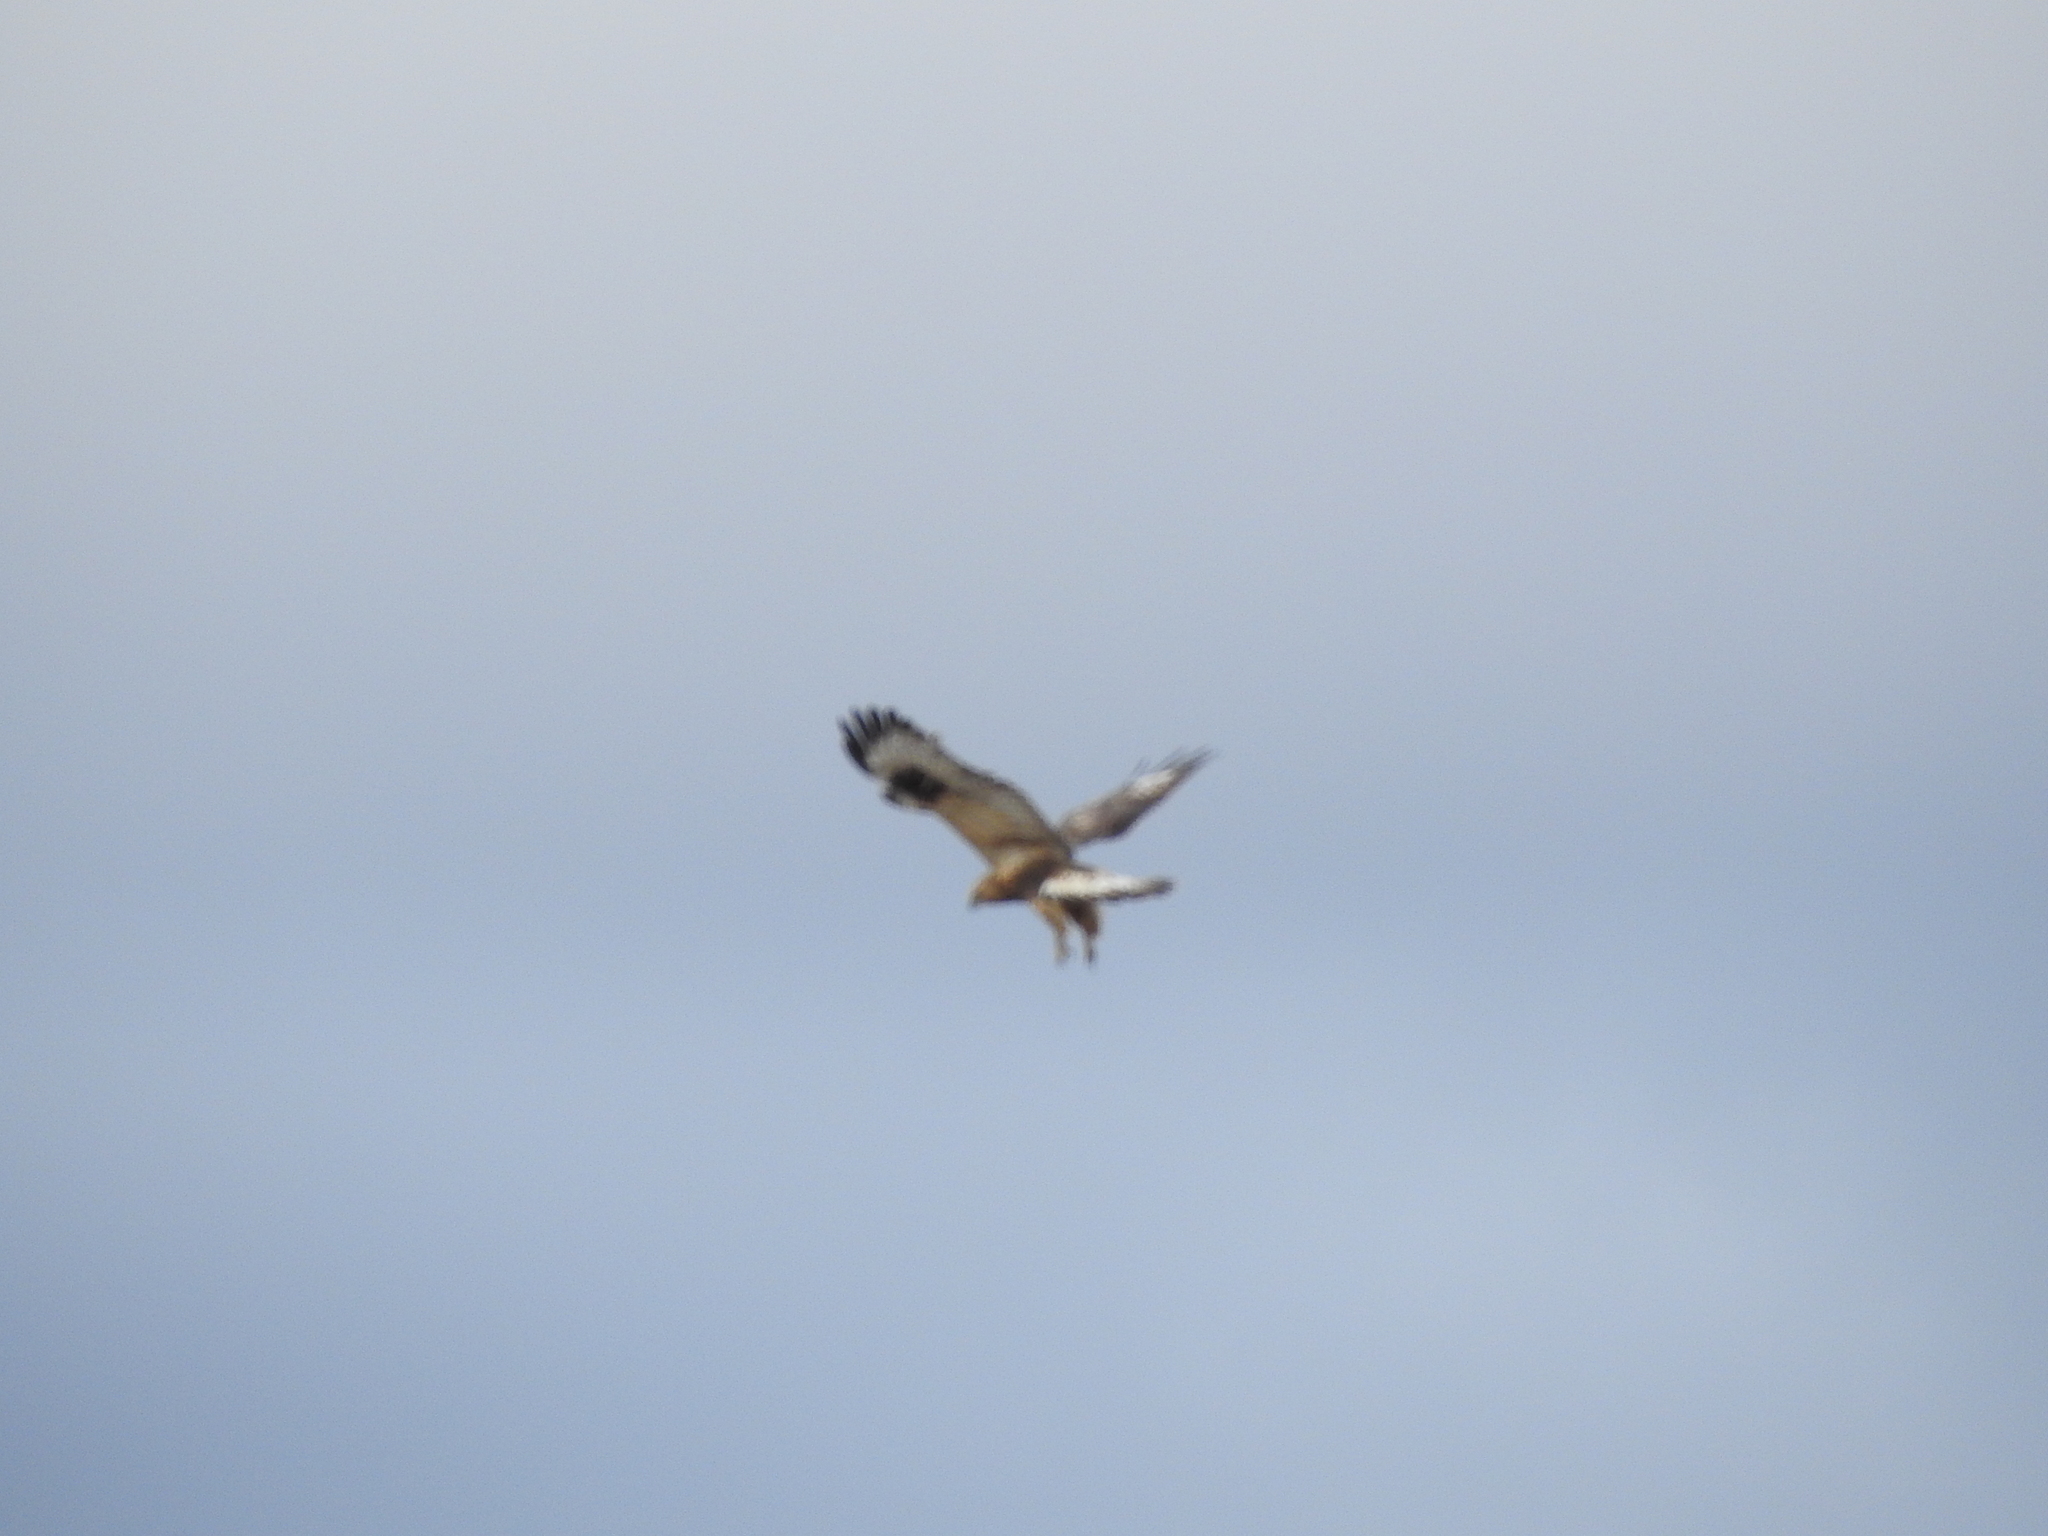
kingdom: Animalia
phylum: Chordata
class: Aves
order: Accipitriformes
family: Accipitridae
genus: Buteo
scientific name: Buteo lagopus
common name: Rough-legged buzzard
